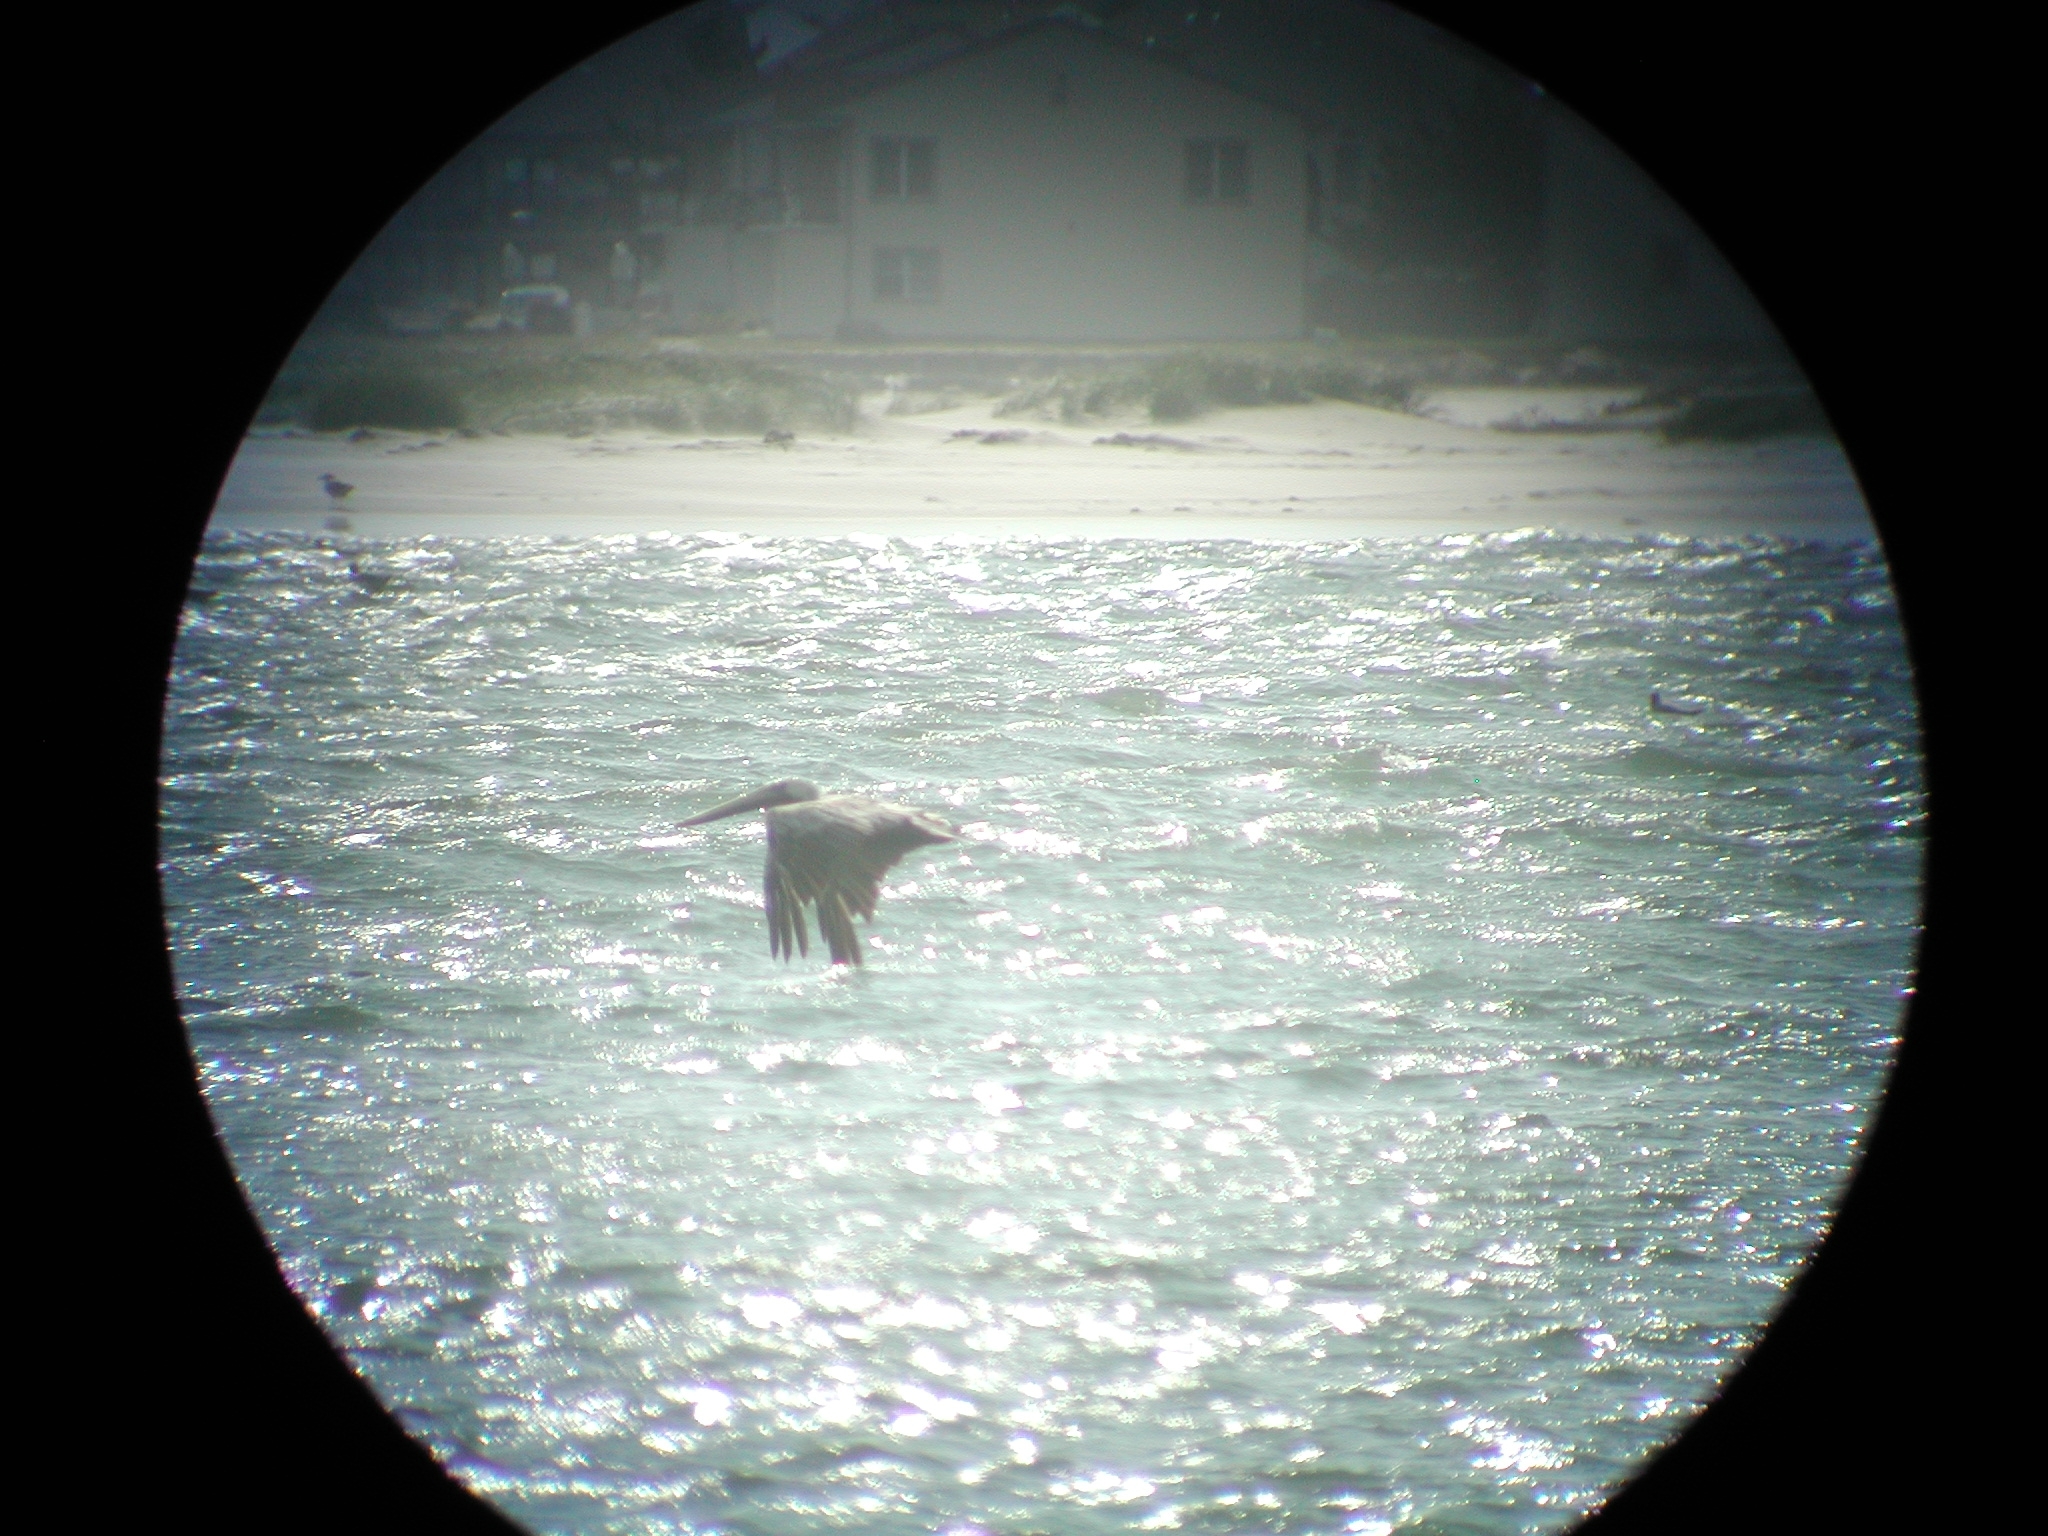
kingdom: Animalia
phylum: Chordata
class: Aves
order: Pelecaniformes
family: Pelecanidae
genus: Pelecanus
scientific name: Pelecanus occidentalis
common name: Brown pelican
